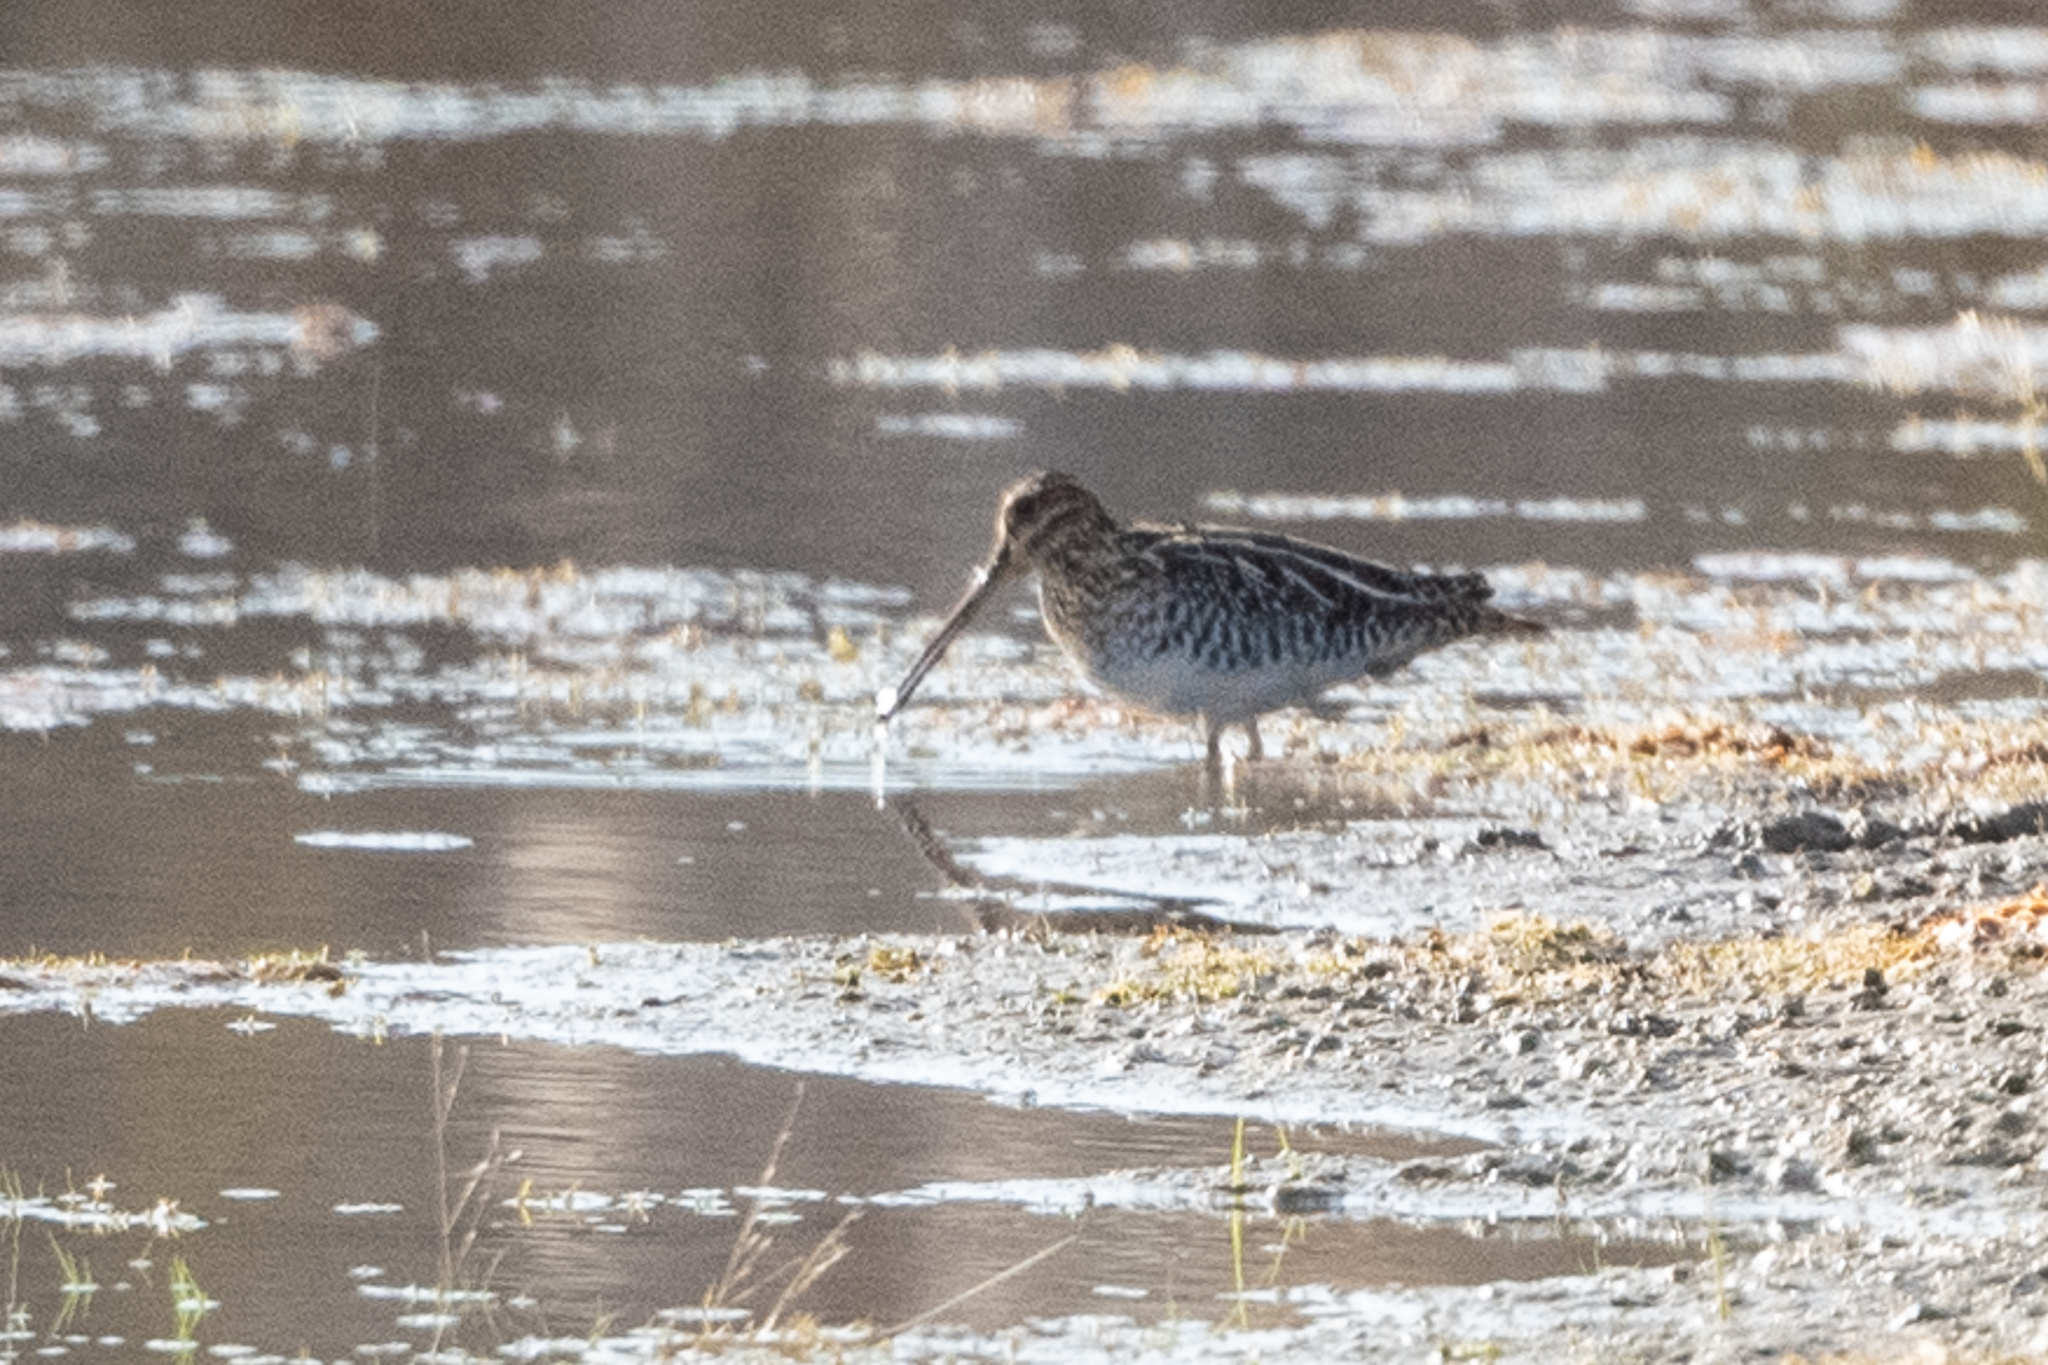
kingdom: Animalia
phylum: Chordata
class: Aves
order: Charadriiformes
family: Scolopacidae
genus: Gallinago
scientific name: Gallinago delicata
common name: Wilson's snipe
